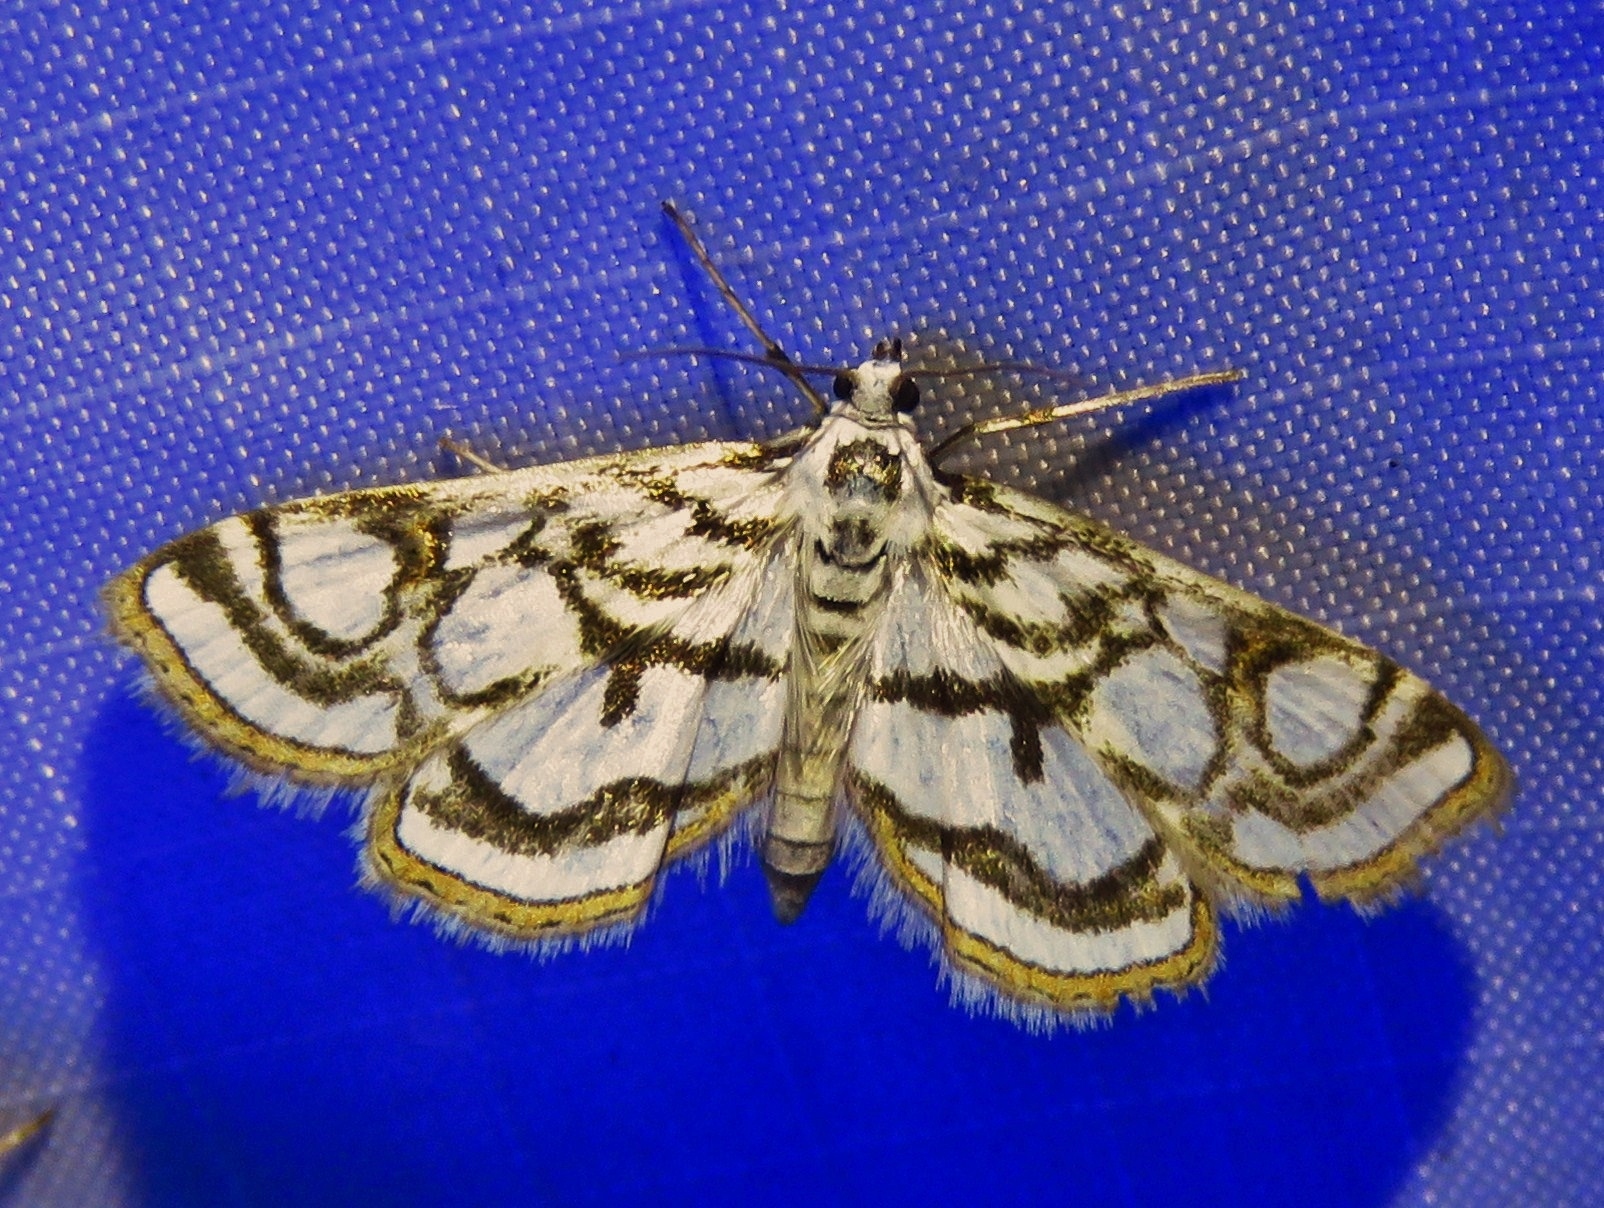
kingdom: Animalia
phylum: Arthropoda
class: Insecta
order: Lepidoptera
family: Crambidae
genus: Nymphula
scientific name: Nymphula nitidulata
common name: Beautiful china mark
